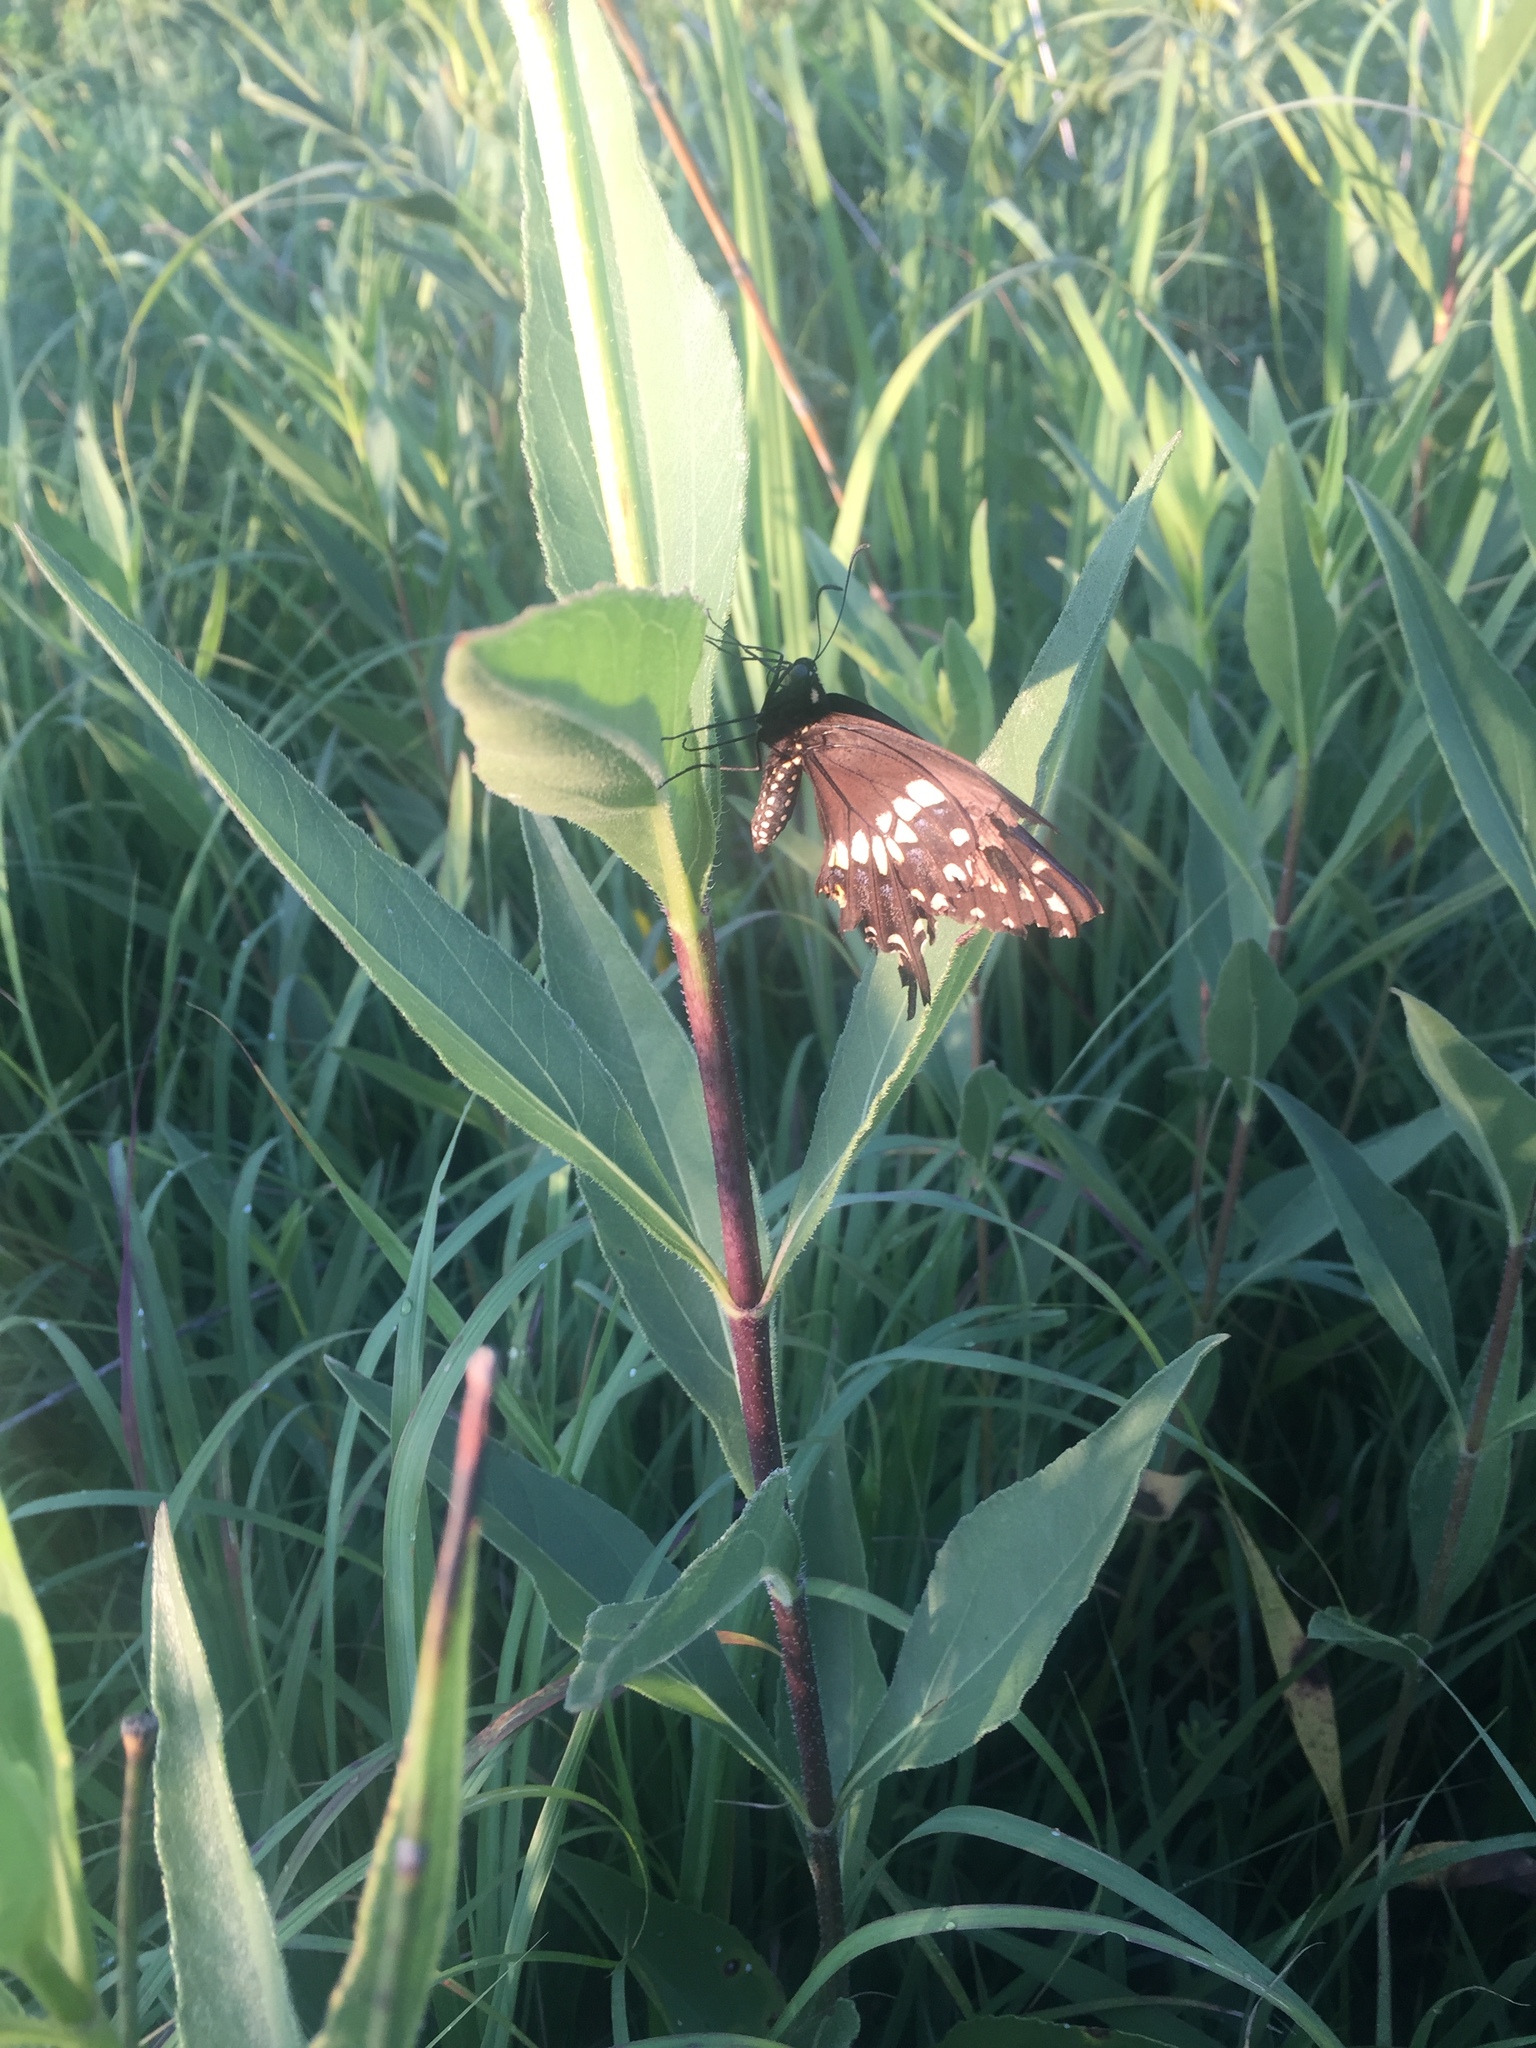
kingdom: Animalia
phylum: Arthropoda
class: Insecta
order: Lepidoptera
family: Papilionidae
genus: Papilio
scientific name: Papilio polyxenes
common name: Black swallowtail
